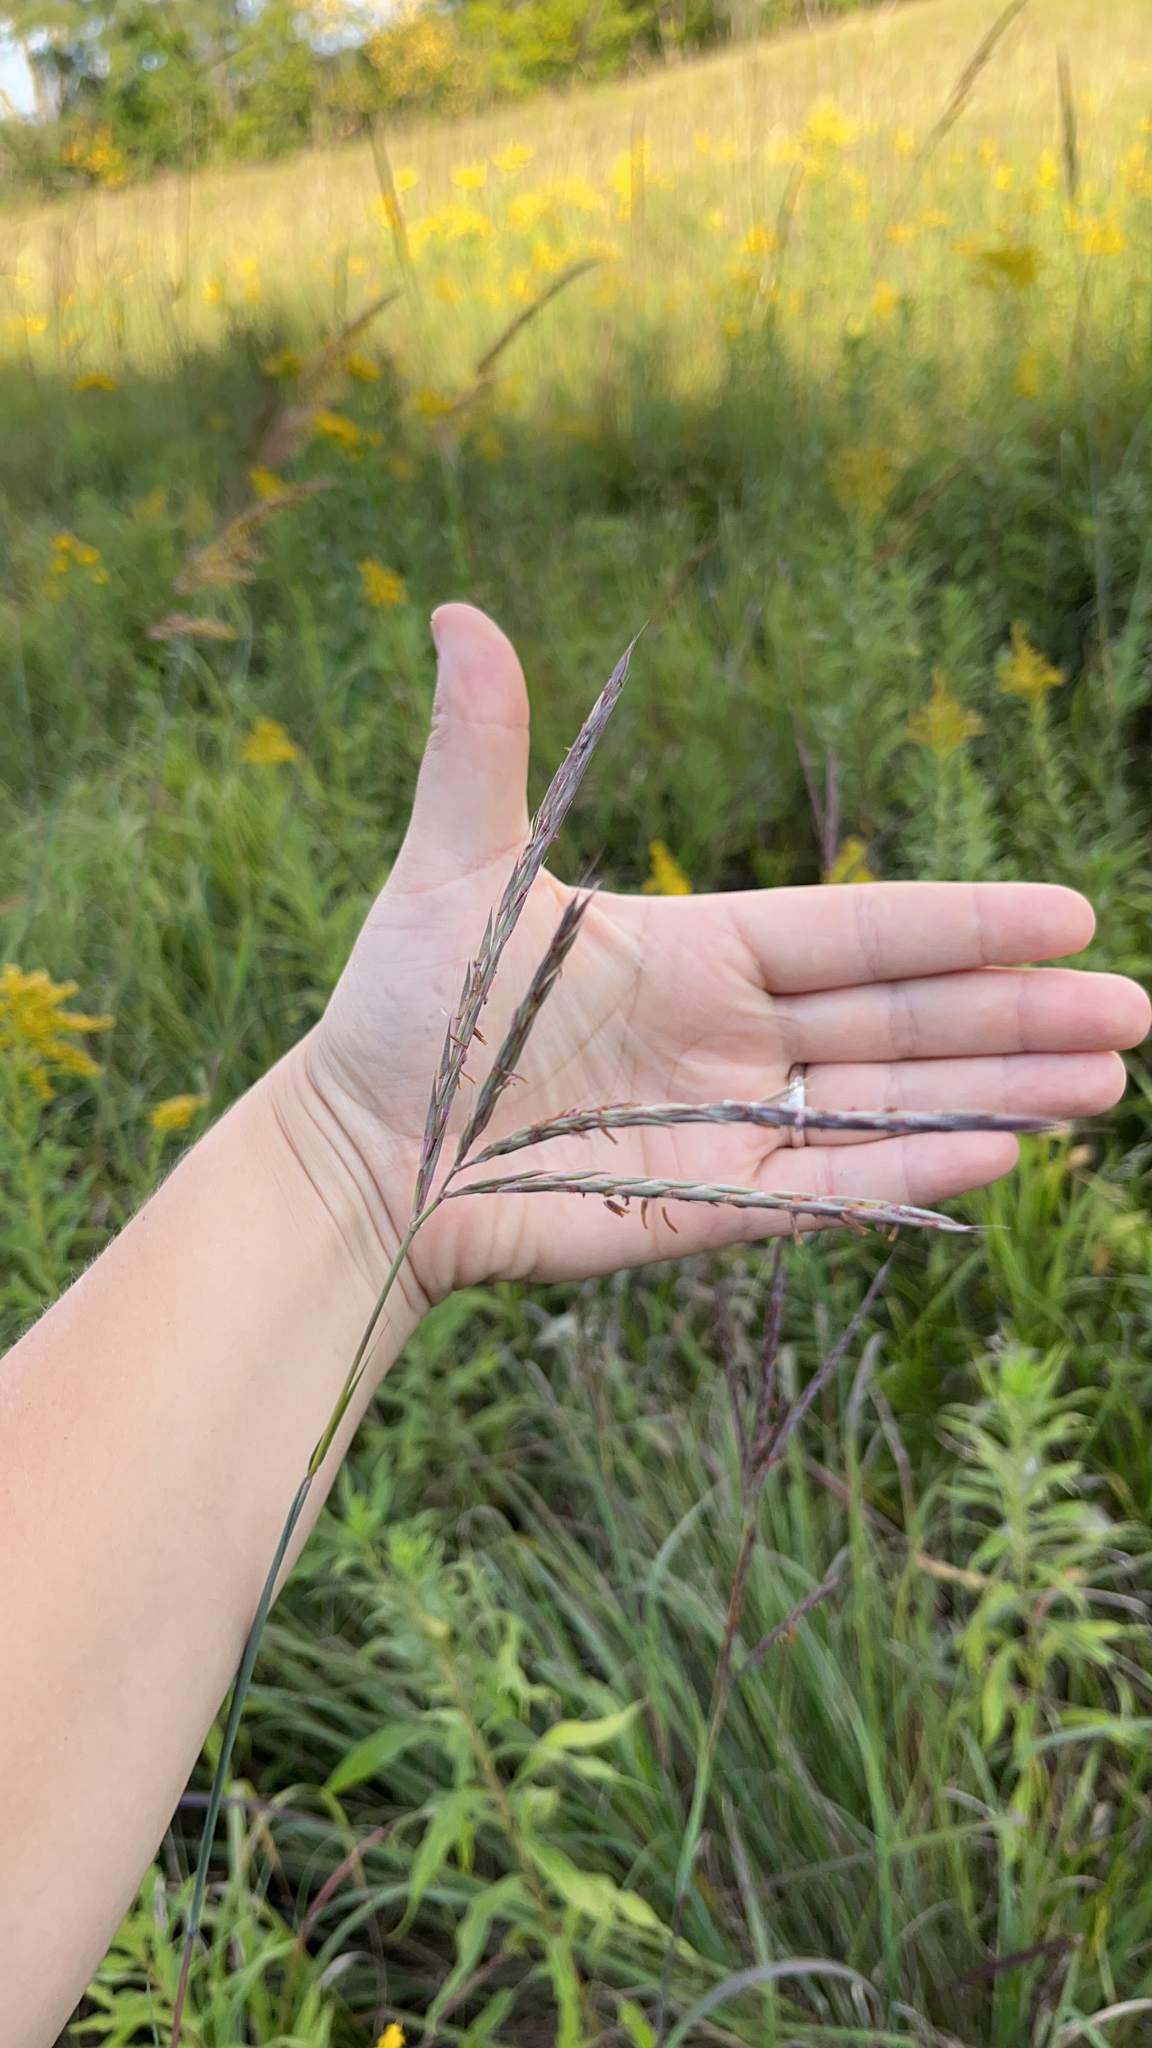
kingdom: Plantae
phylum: Tracheophyta
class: Liliopsida
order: Poales
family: Poaceae
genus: Andropogon
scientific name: Andropogon gerardi
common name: Big bluestem
